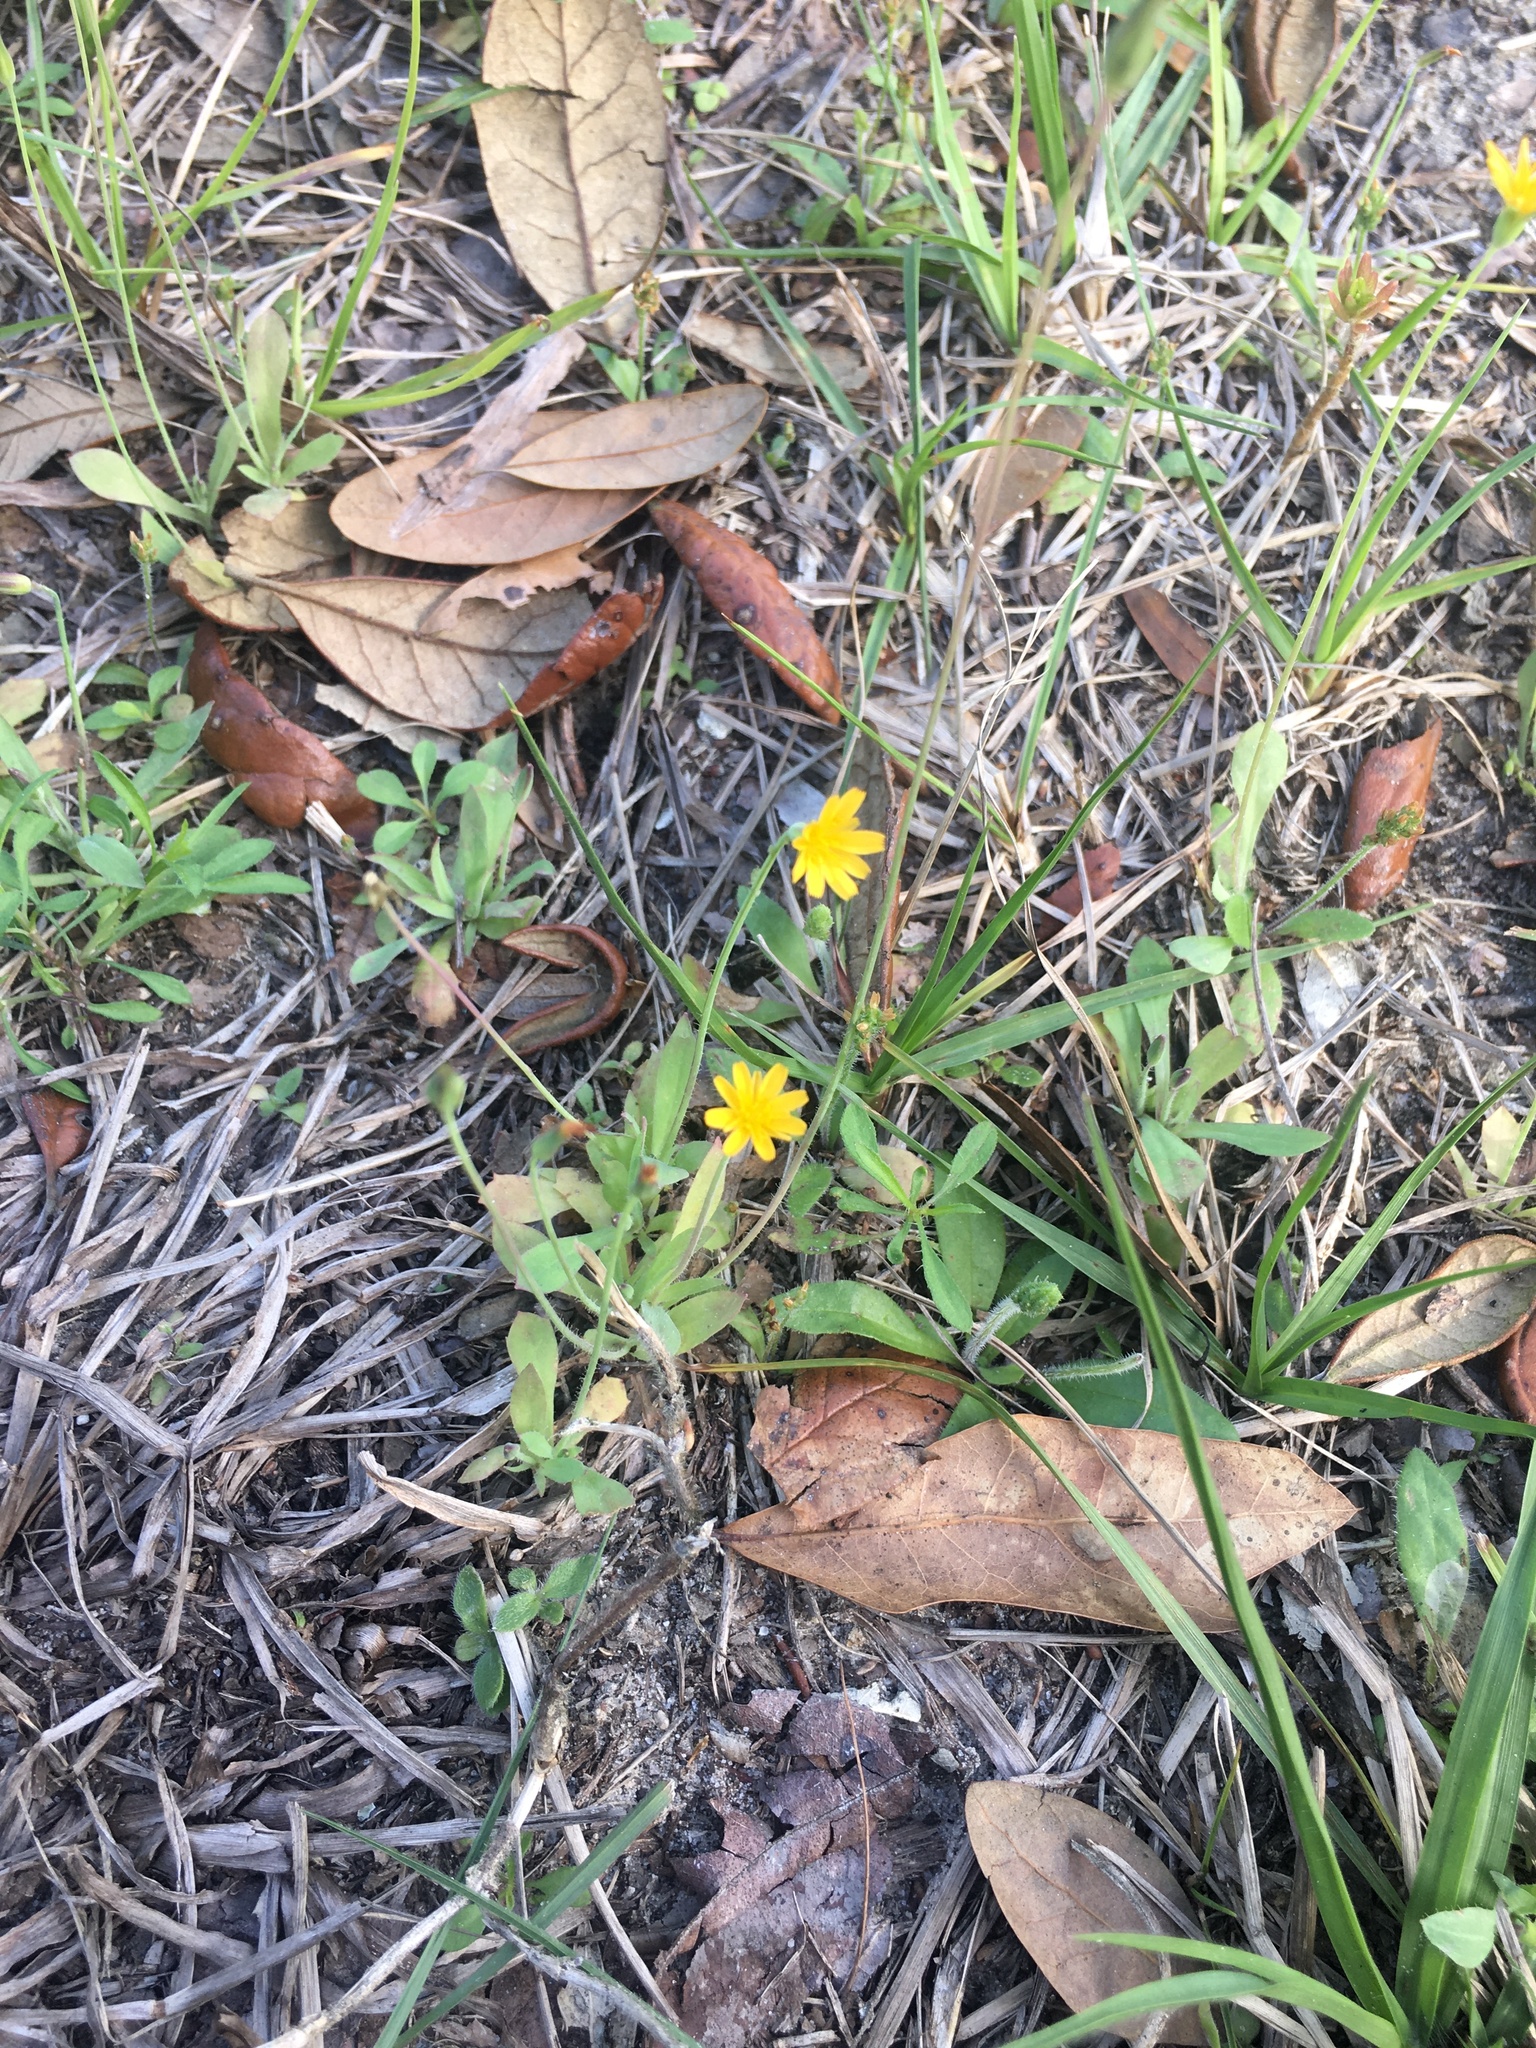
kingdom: Plantae
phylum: Tracheophyta
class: Magnoliopsida
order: Asterales
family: Asteraceae
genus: Krigia
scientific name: Krigia virginica
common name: Virginia dwarf-dandelion
